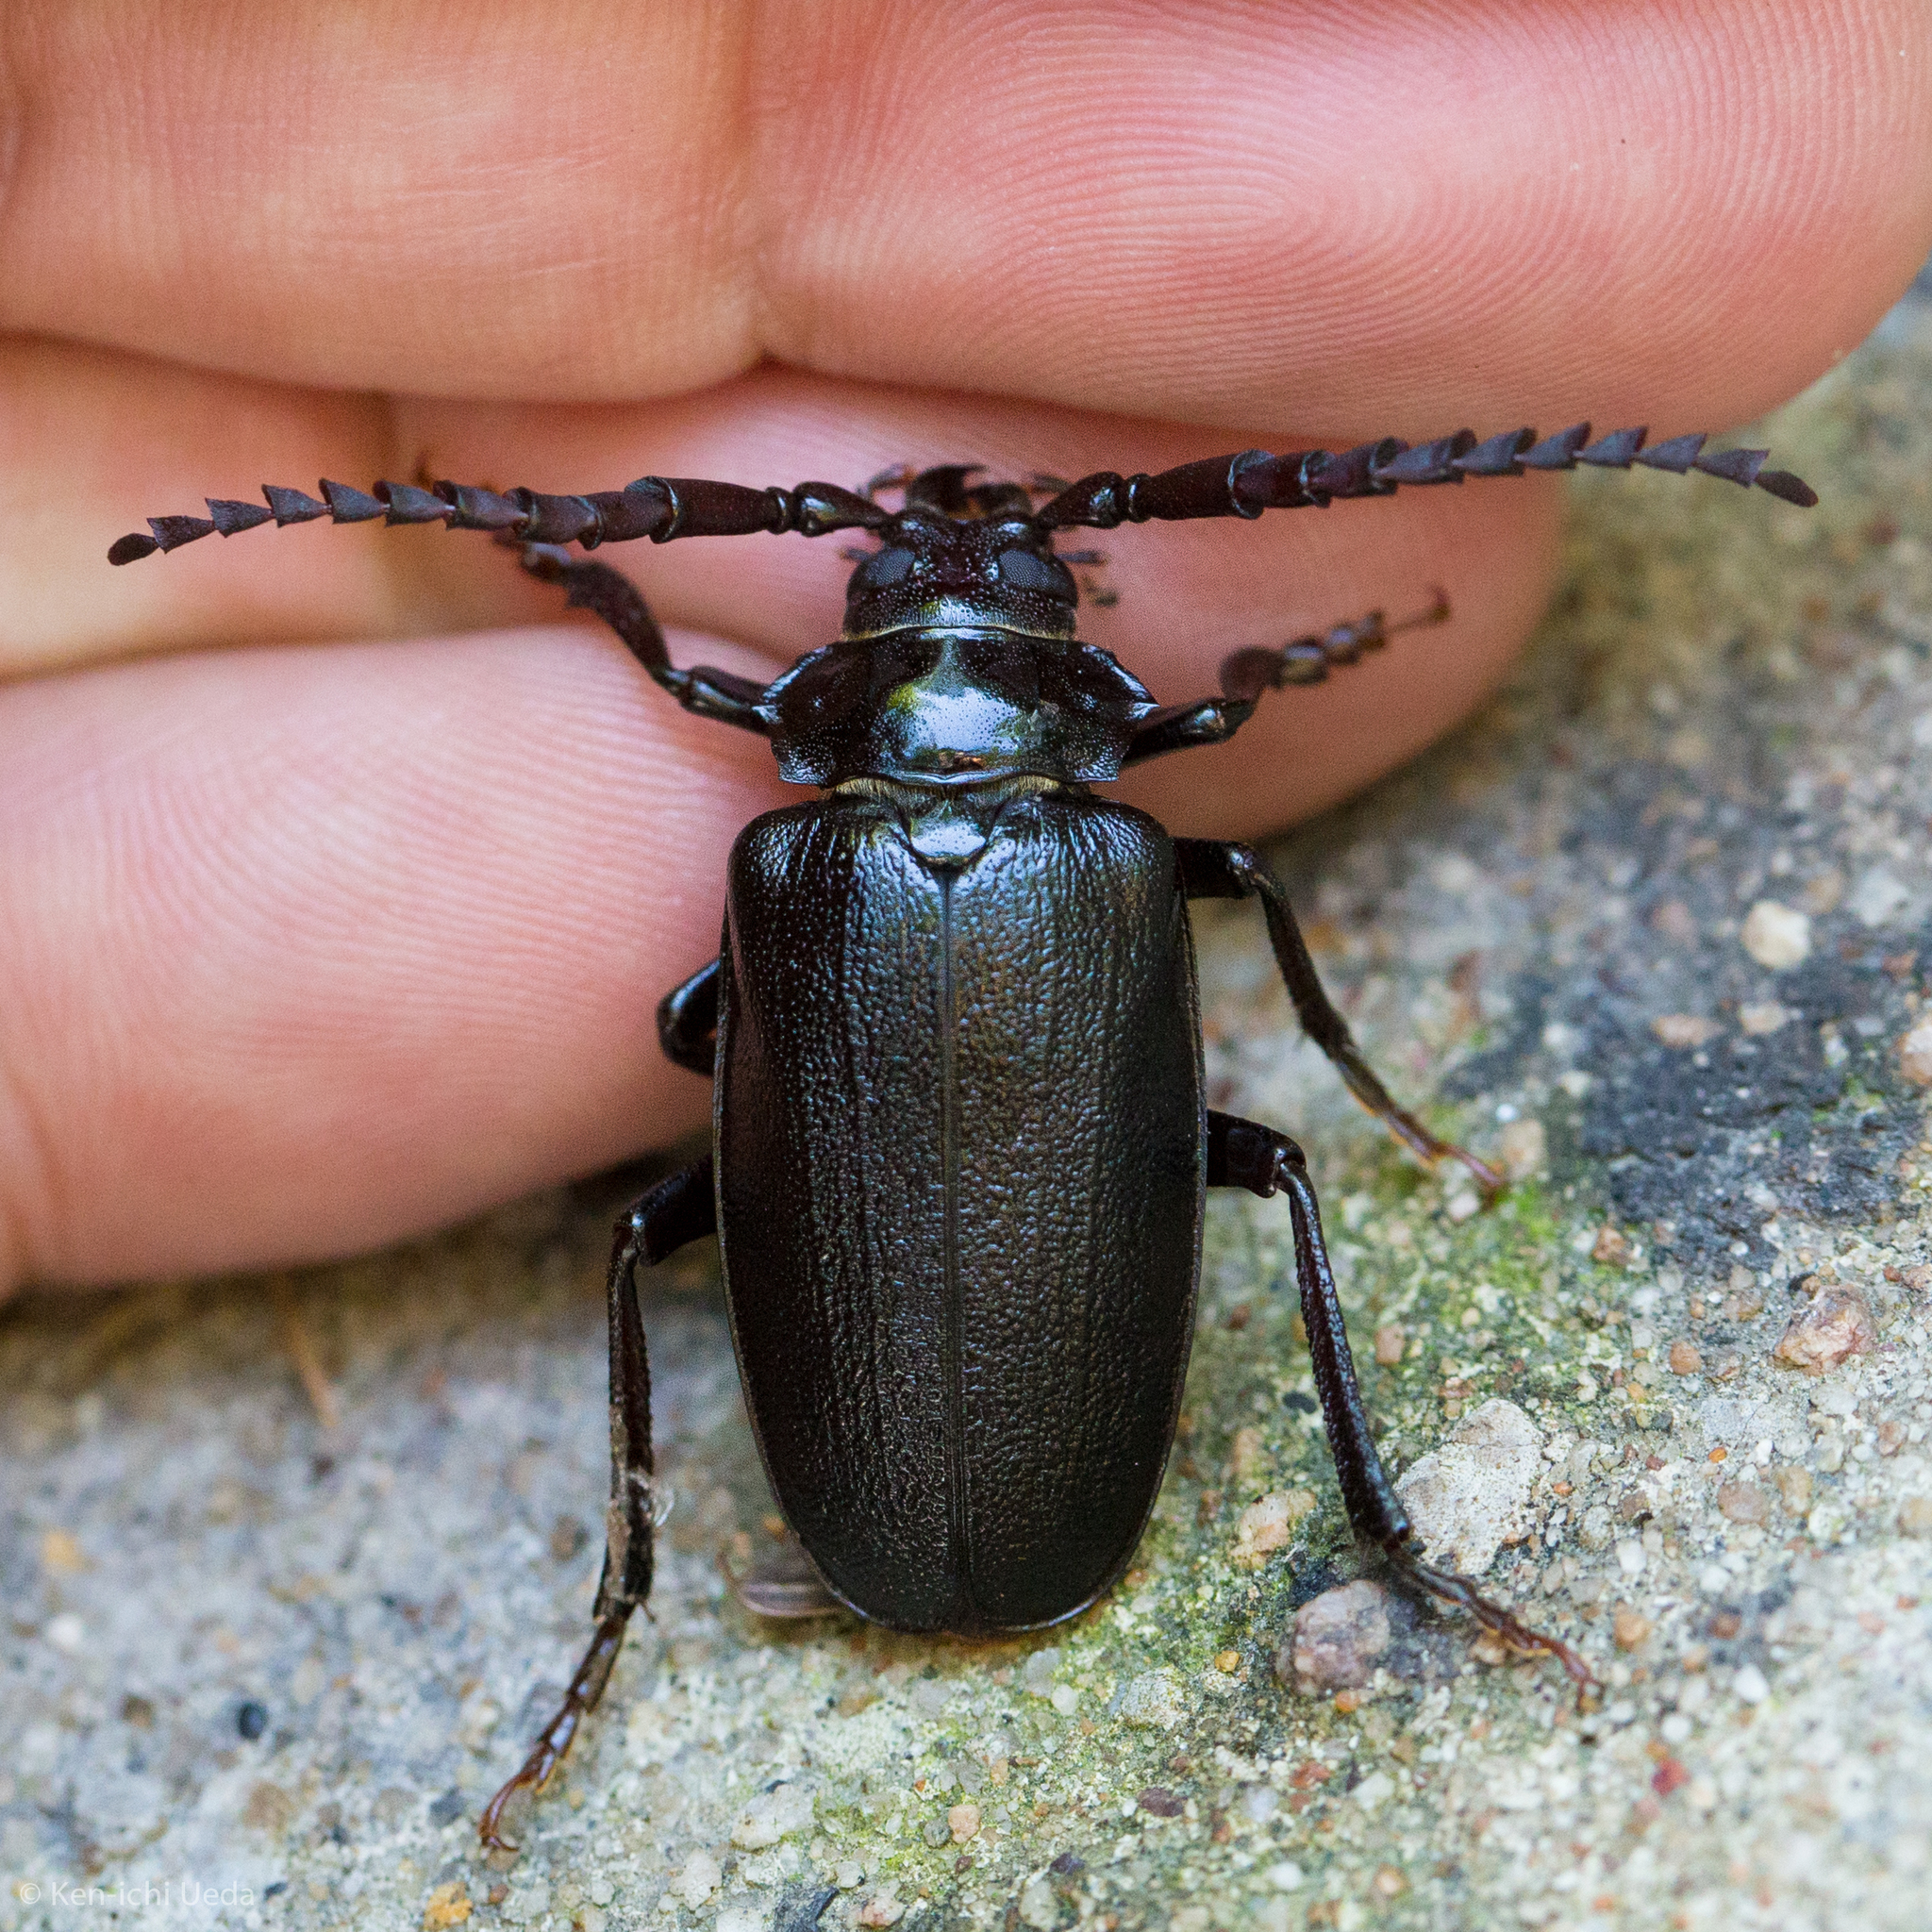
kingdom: Animalia
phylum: Arthropoda
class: Insecta
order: Coleoptera
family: Cerambycidae
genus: Prionus
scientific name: Prionus laticollis
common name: Broad necked prionus
